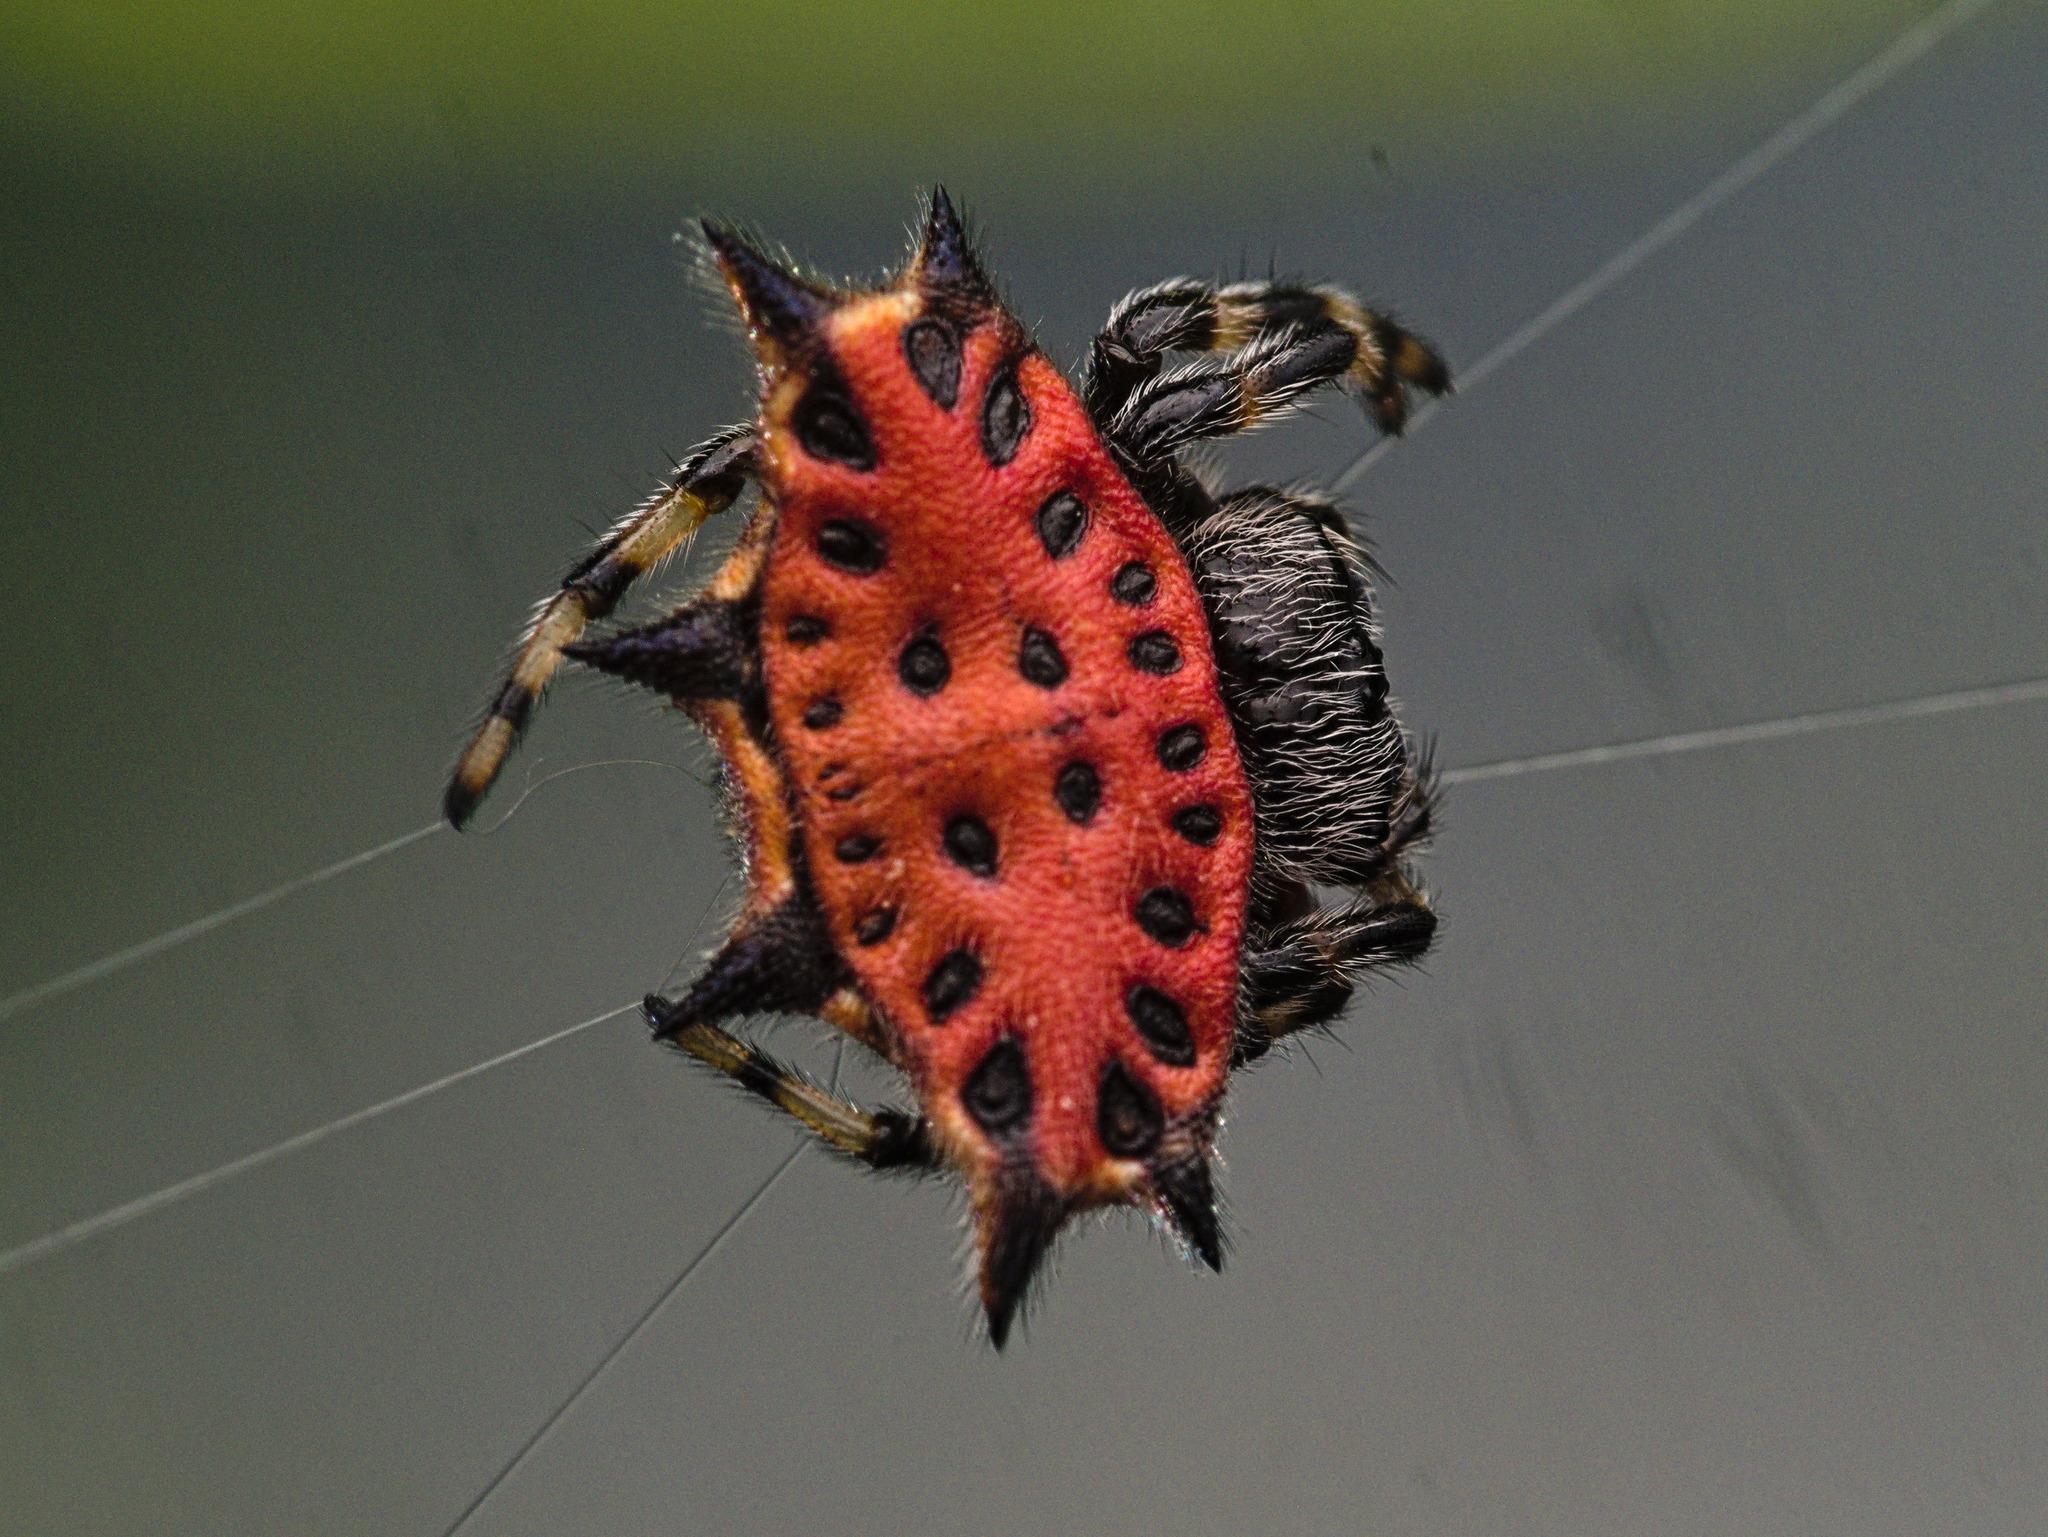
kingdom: Animalia
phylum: Arthropoda
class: Arachnida
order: Araneae
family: Araneidae
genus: Gasteracantha
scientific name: Gasteracantha cancriformis
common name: Orb weavers
